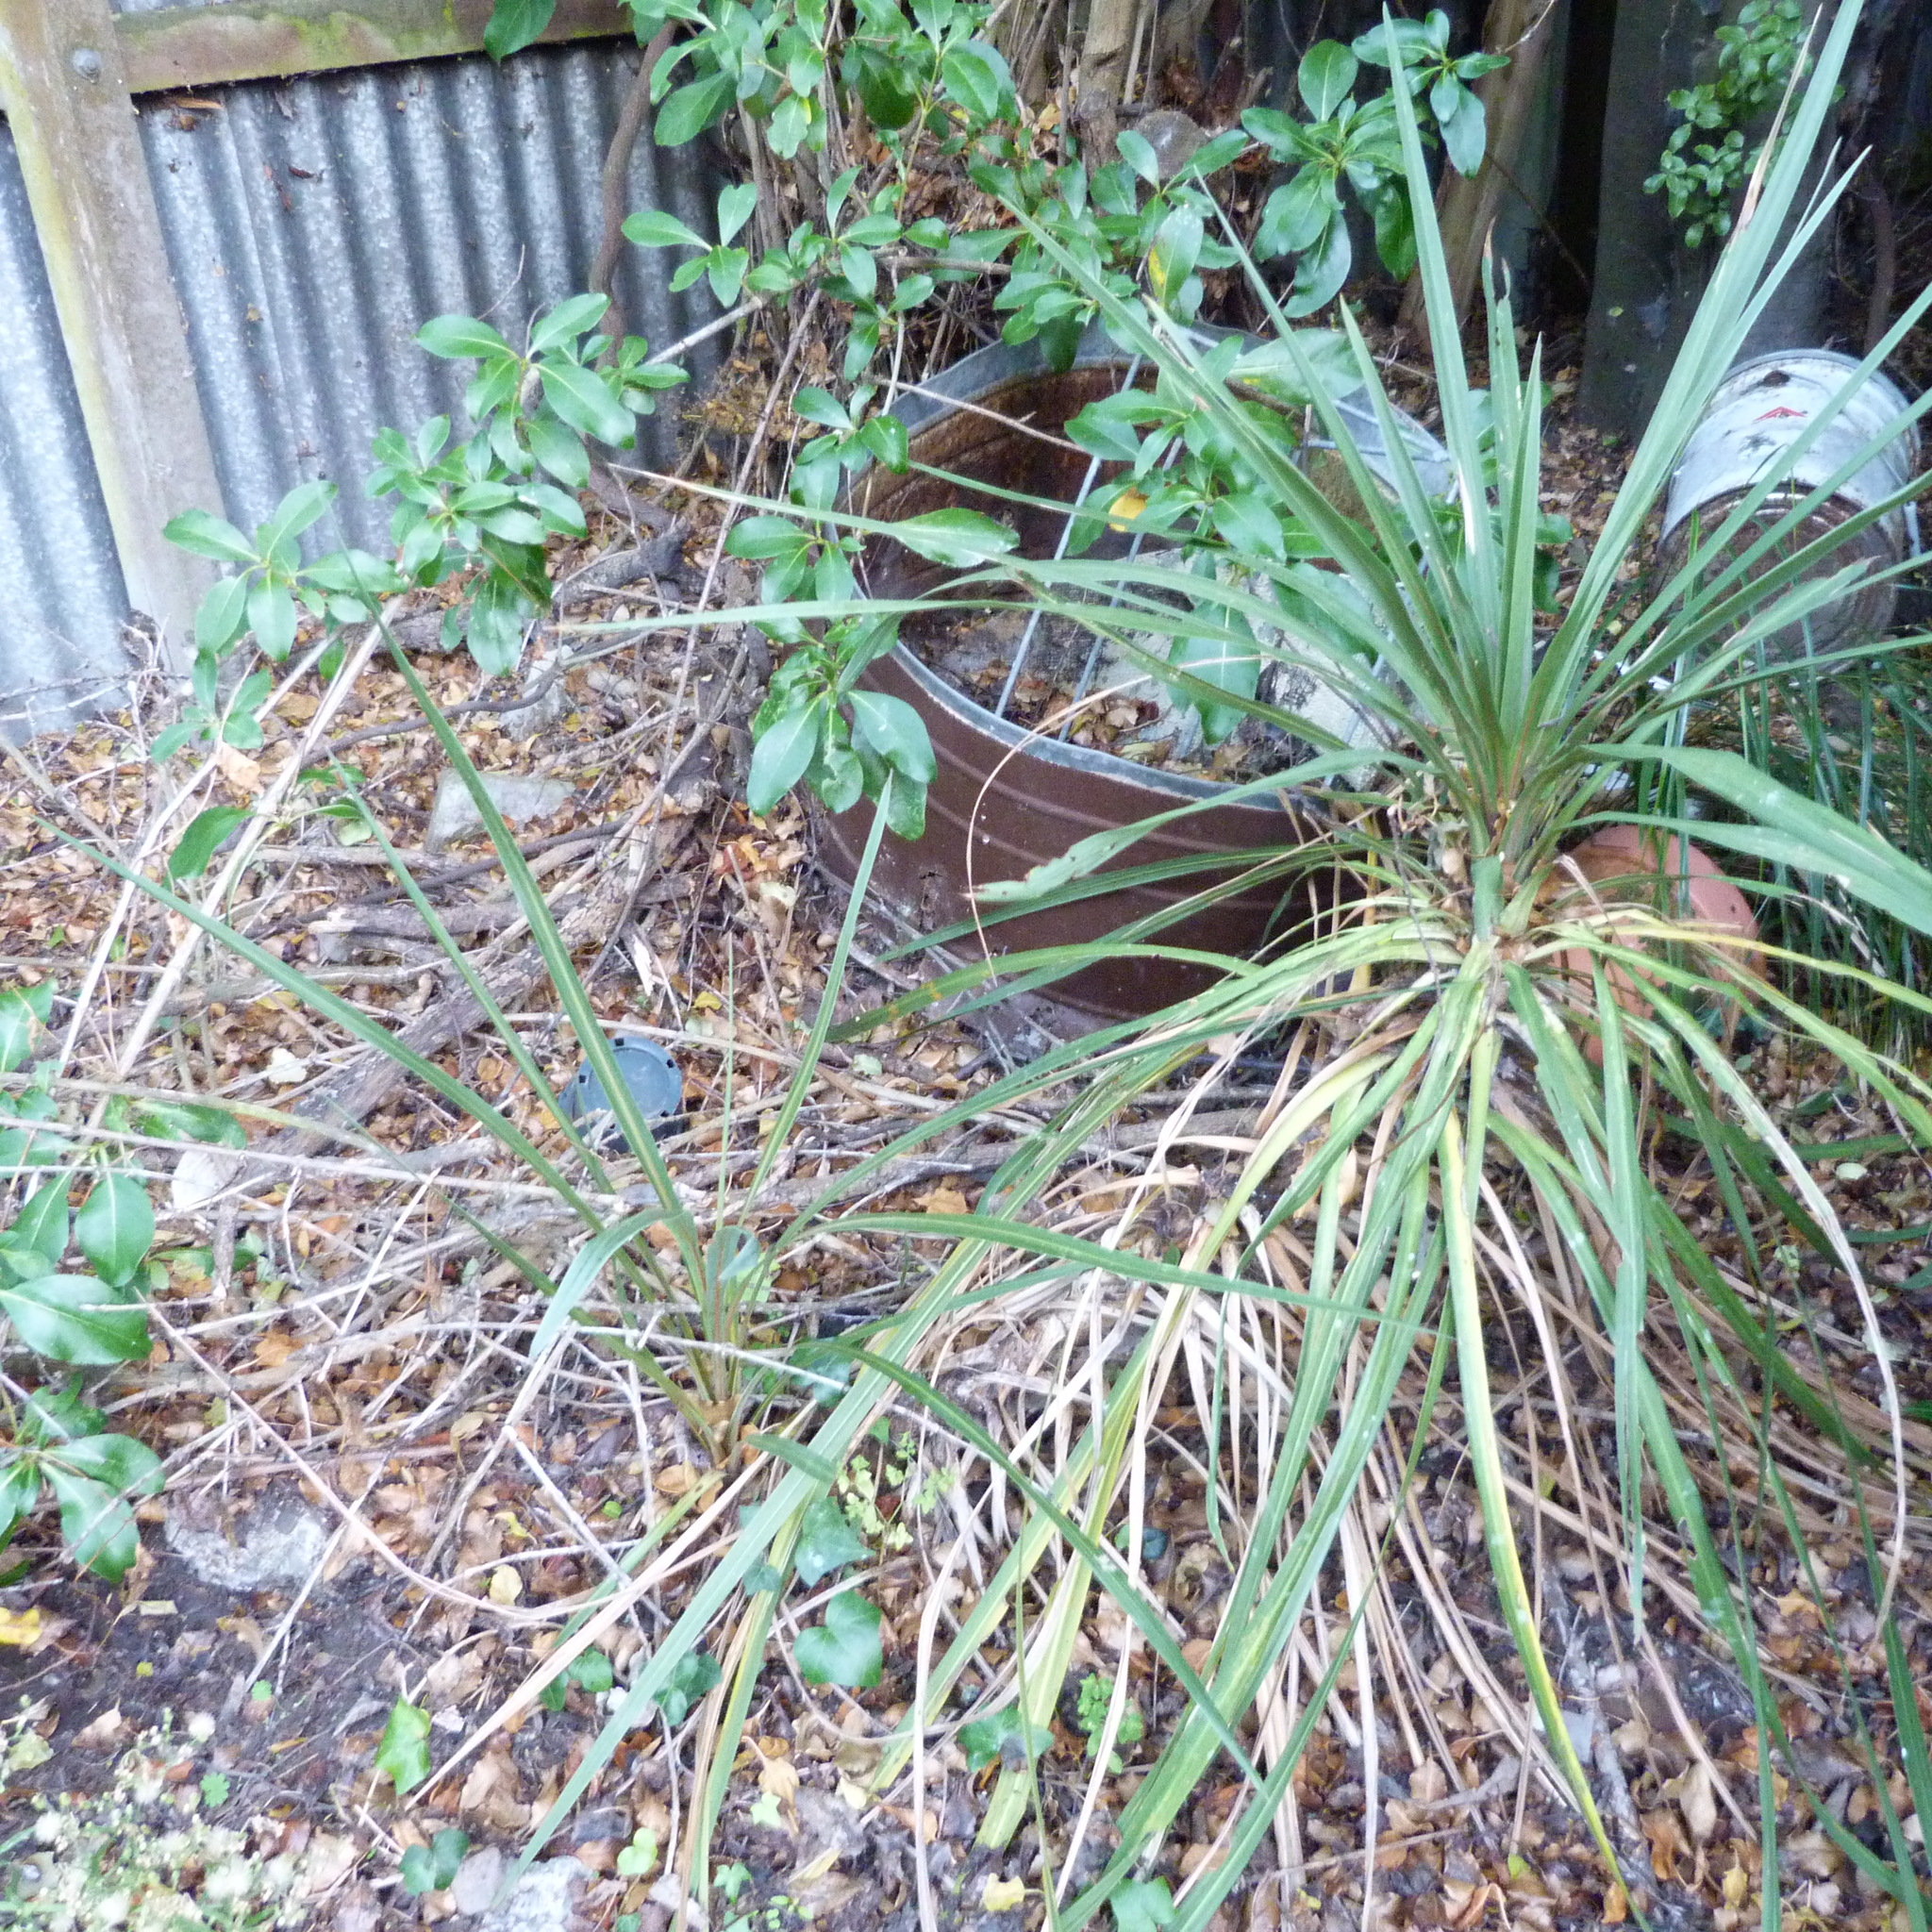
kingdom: Plantae
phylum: Tracheophyta
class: Liliopsida
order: Asparagales
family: Asparagaceae
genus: Cordyline
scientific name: Cordyline australis
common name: Cabbage-palm
